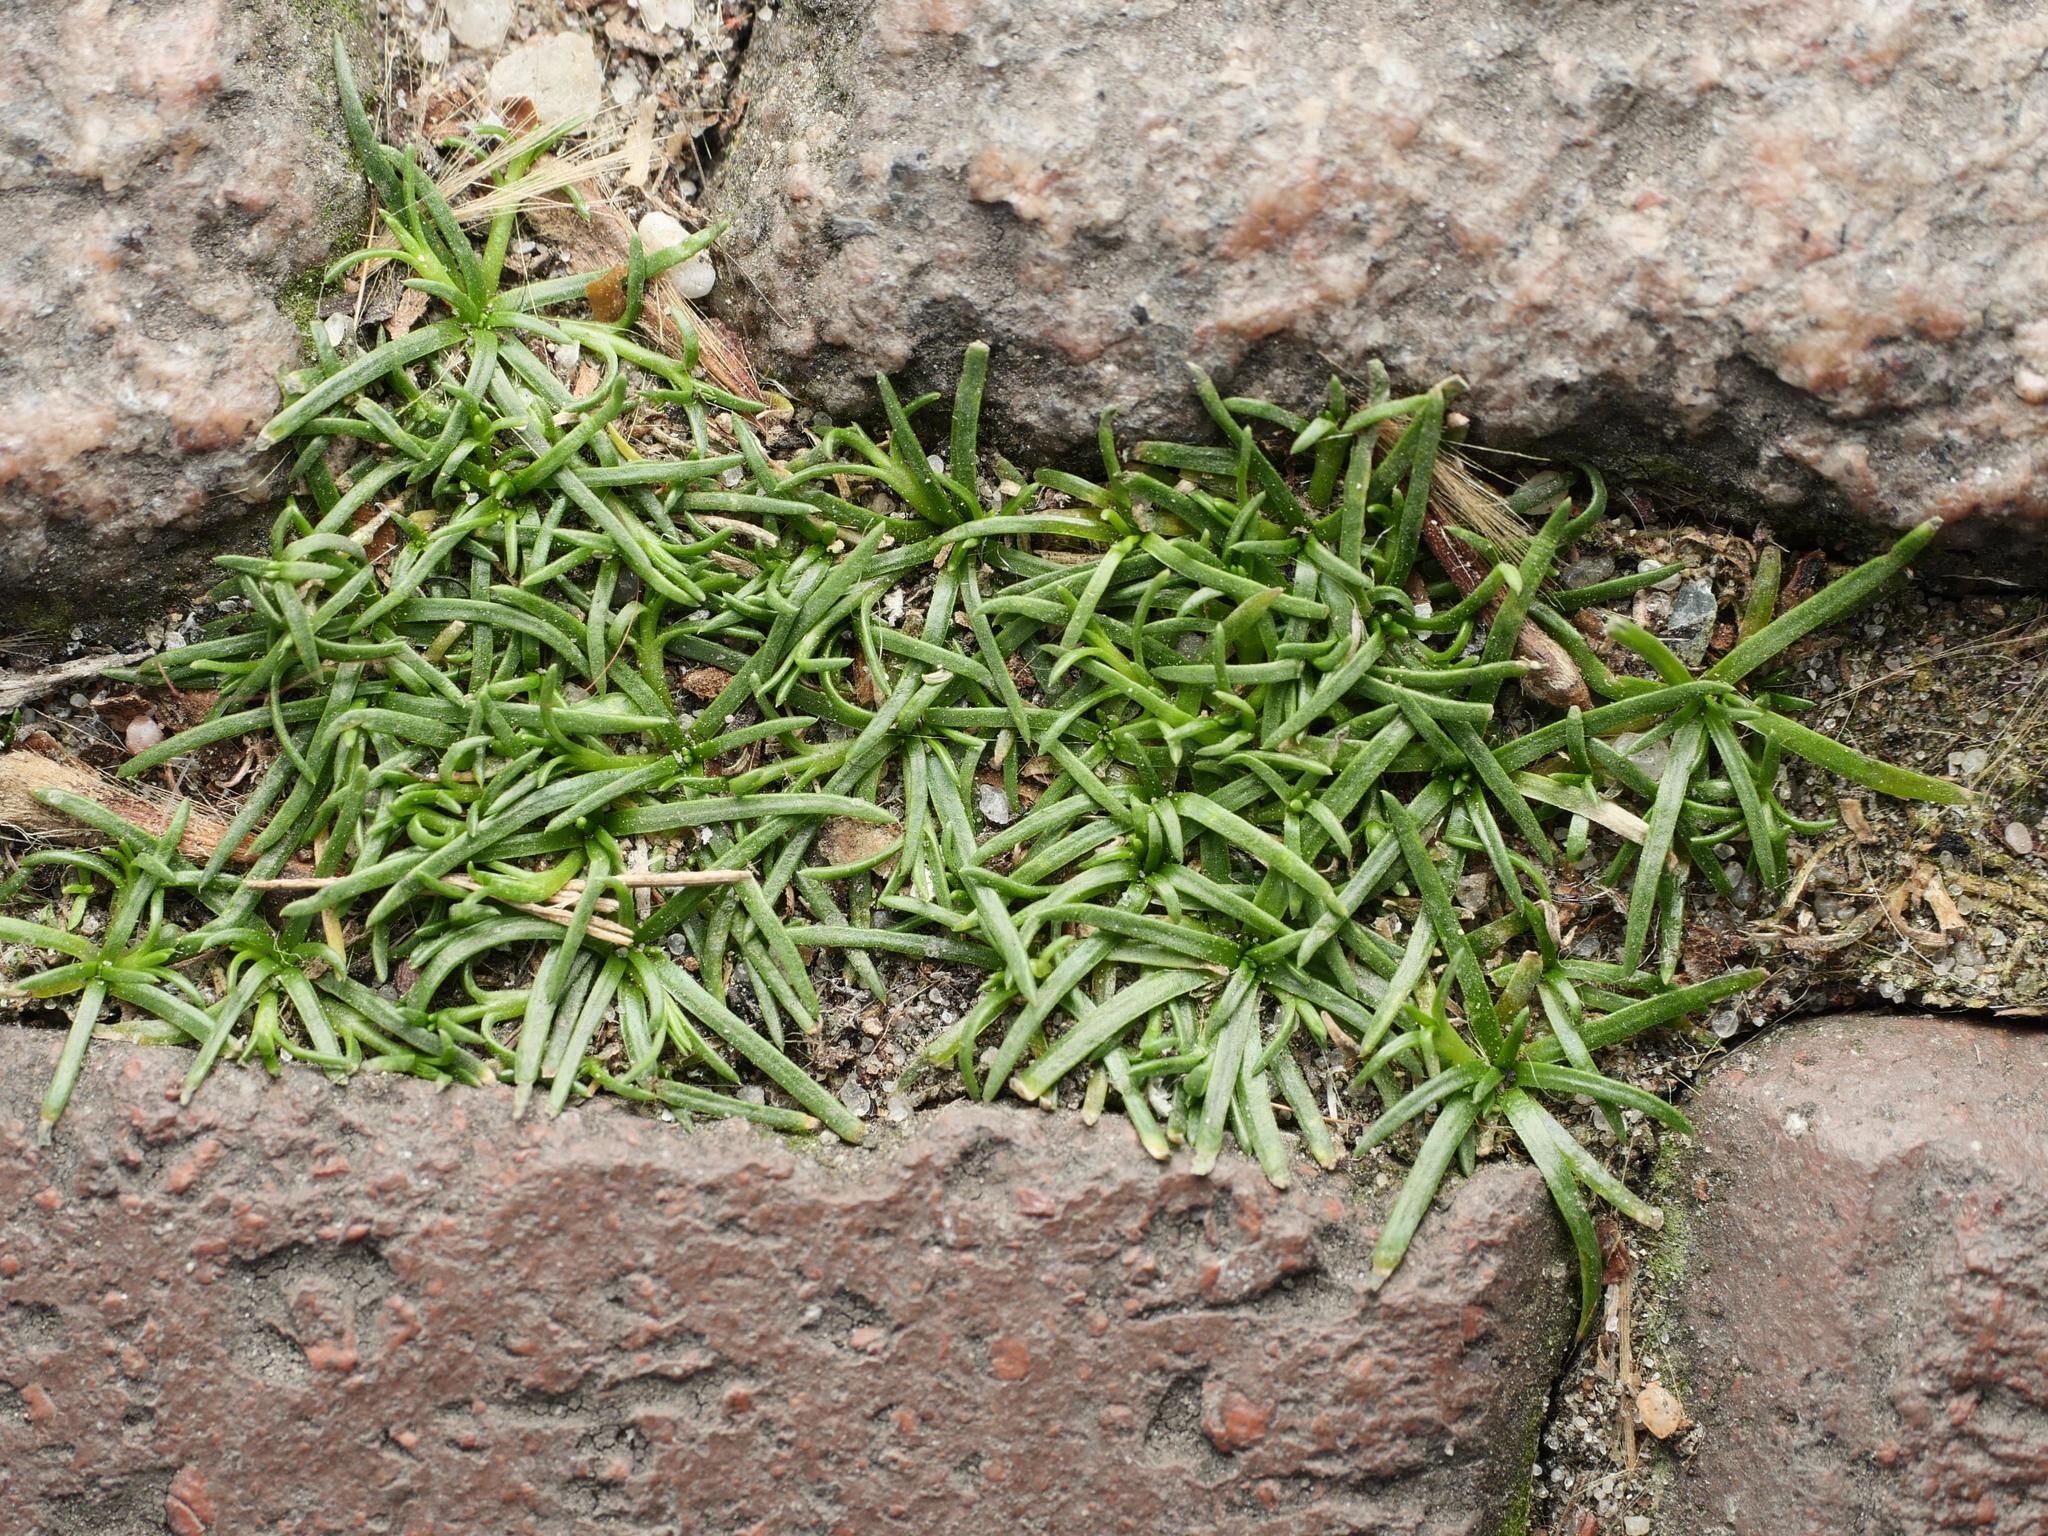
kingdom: Plantae
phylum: Tracheophyta
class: Magnoliopsida
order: Caryophyllales
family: Caryophyllaceae
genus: Sagina
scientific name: Sagina procumbens
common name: Procumbent pearlwort
